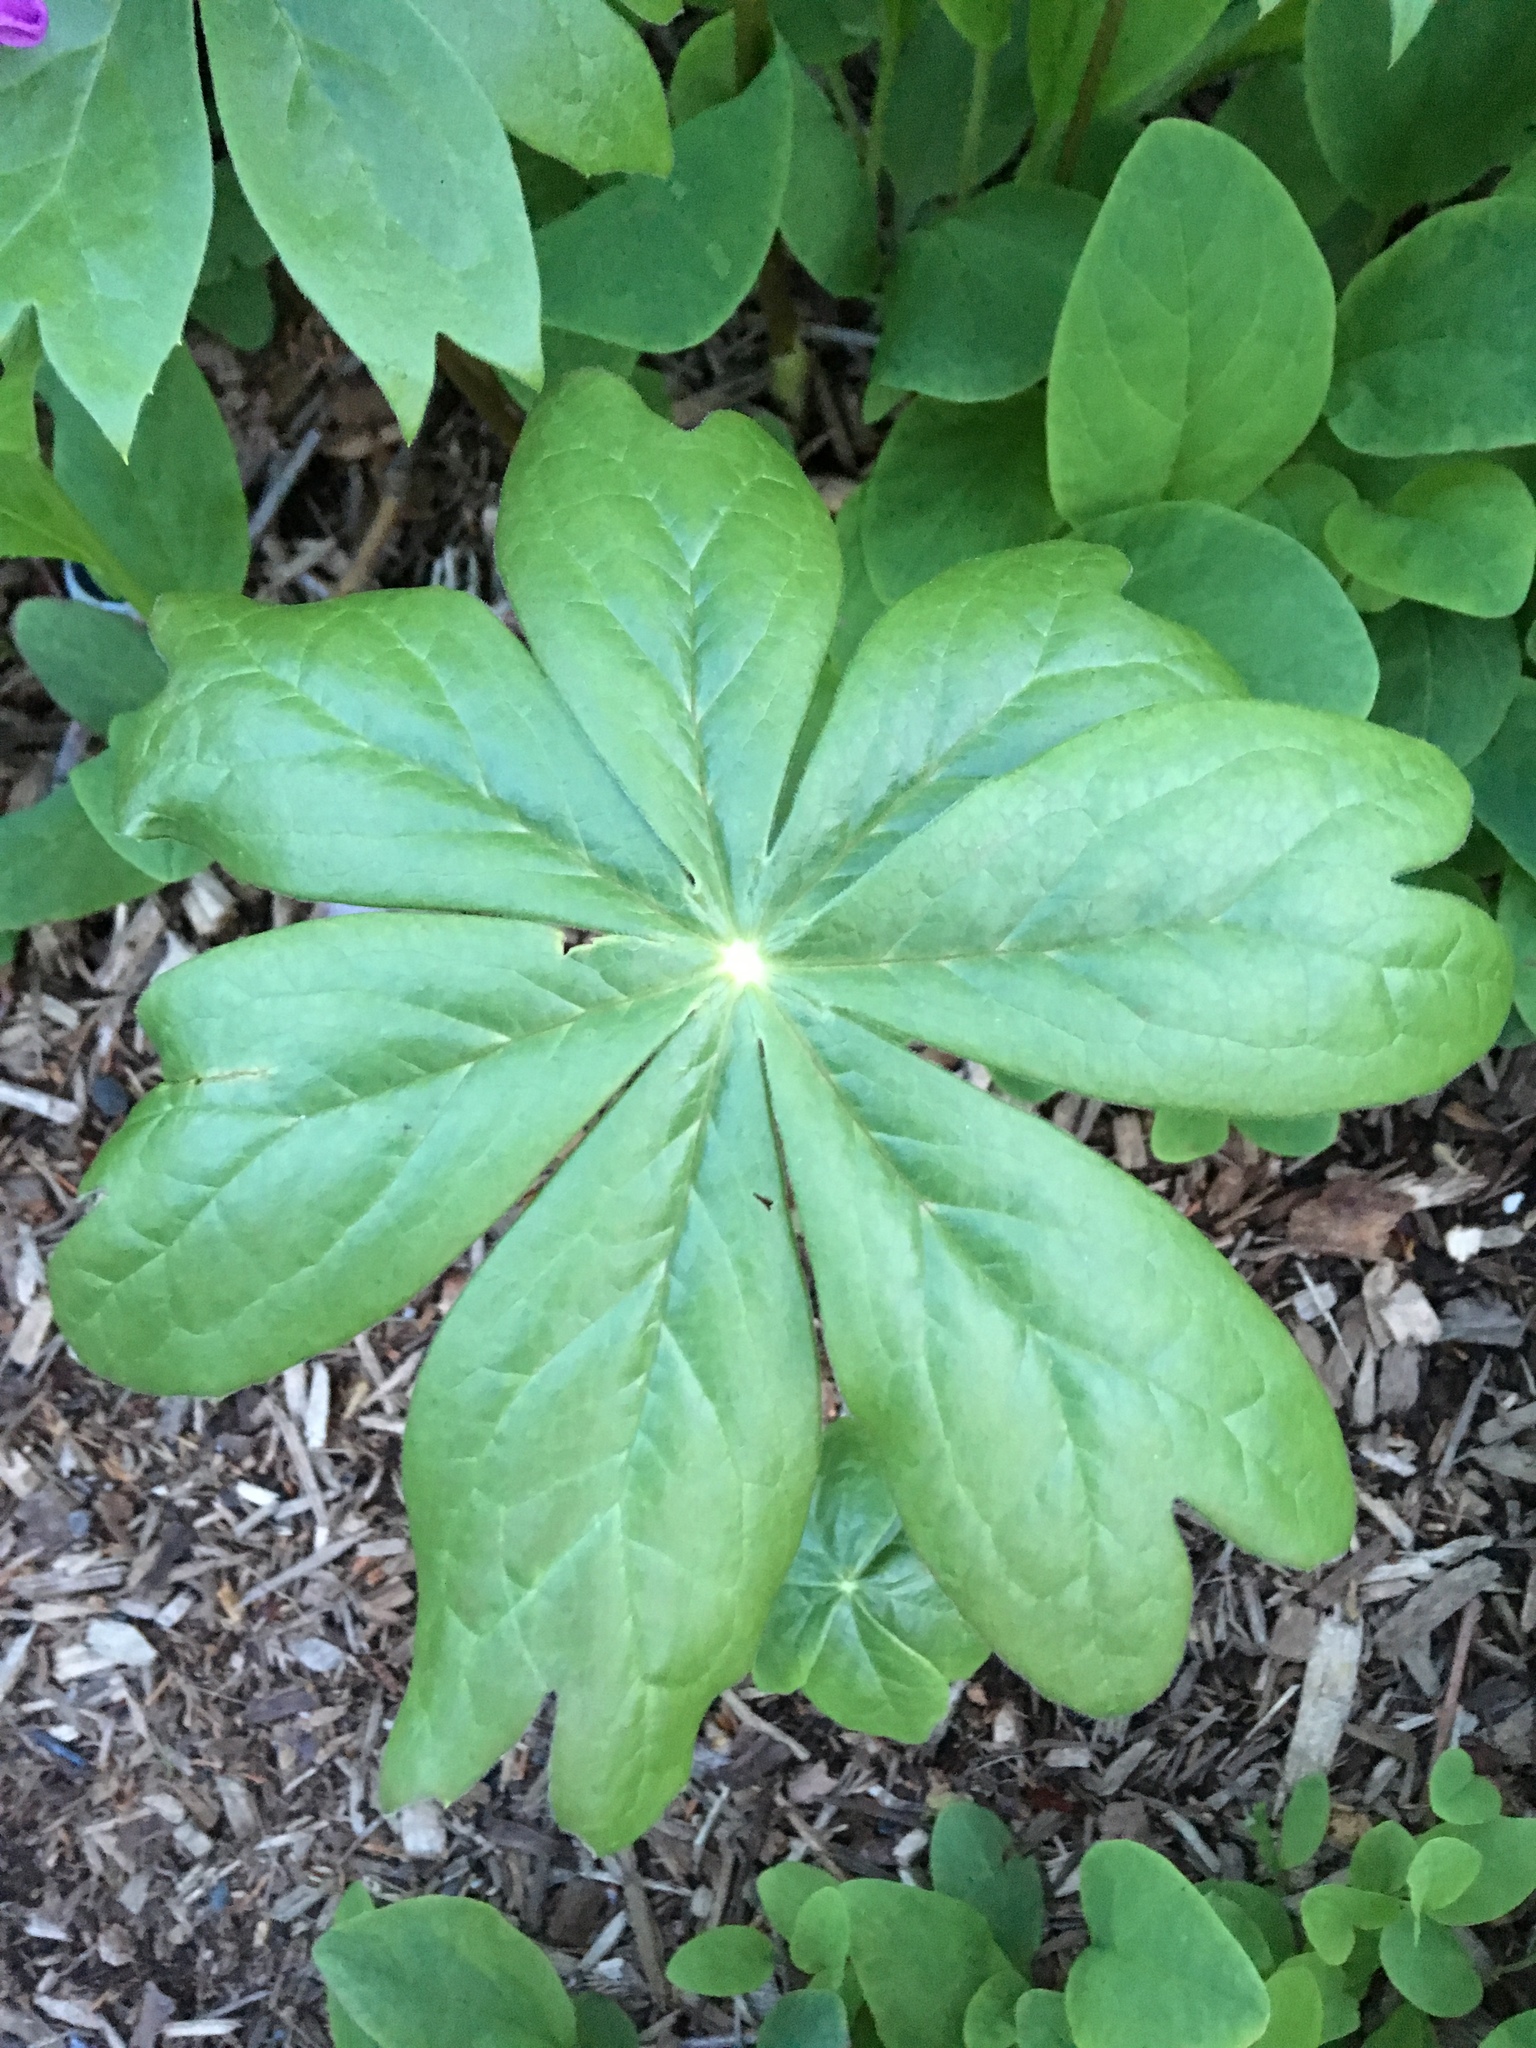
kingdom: Plantae
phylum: Tracheophyta
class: Magnoliopsida
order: Ranunculales
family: Berberidaceae
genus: Podophyllum
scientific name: Podophyllum peltatum
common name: Wild mandrake
